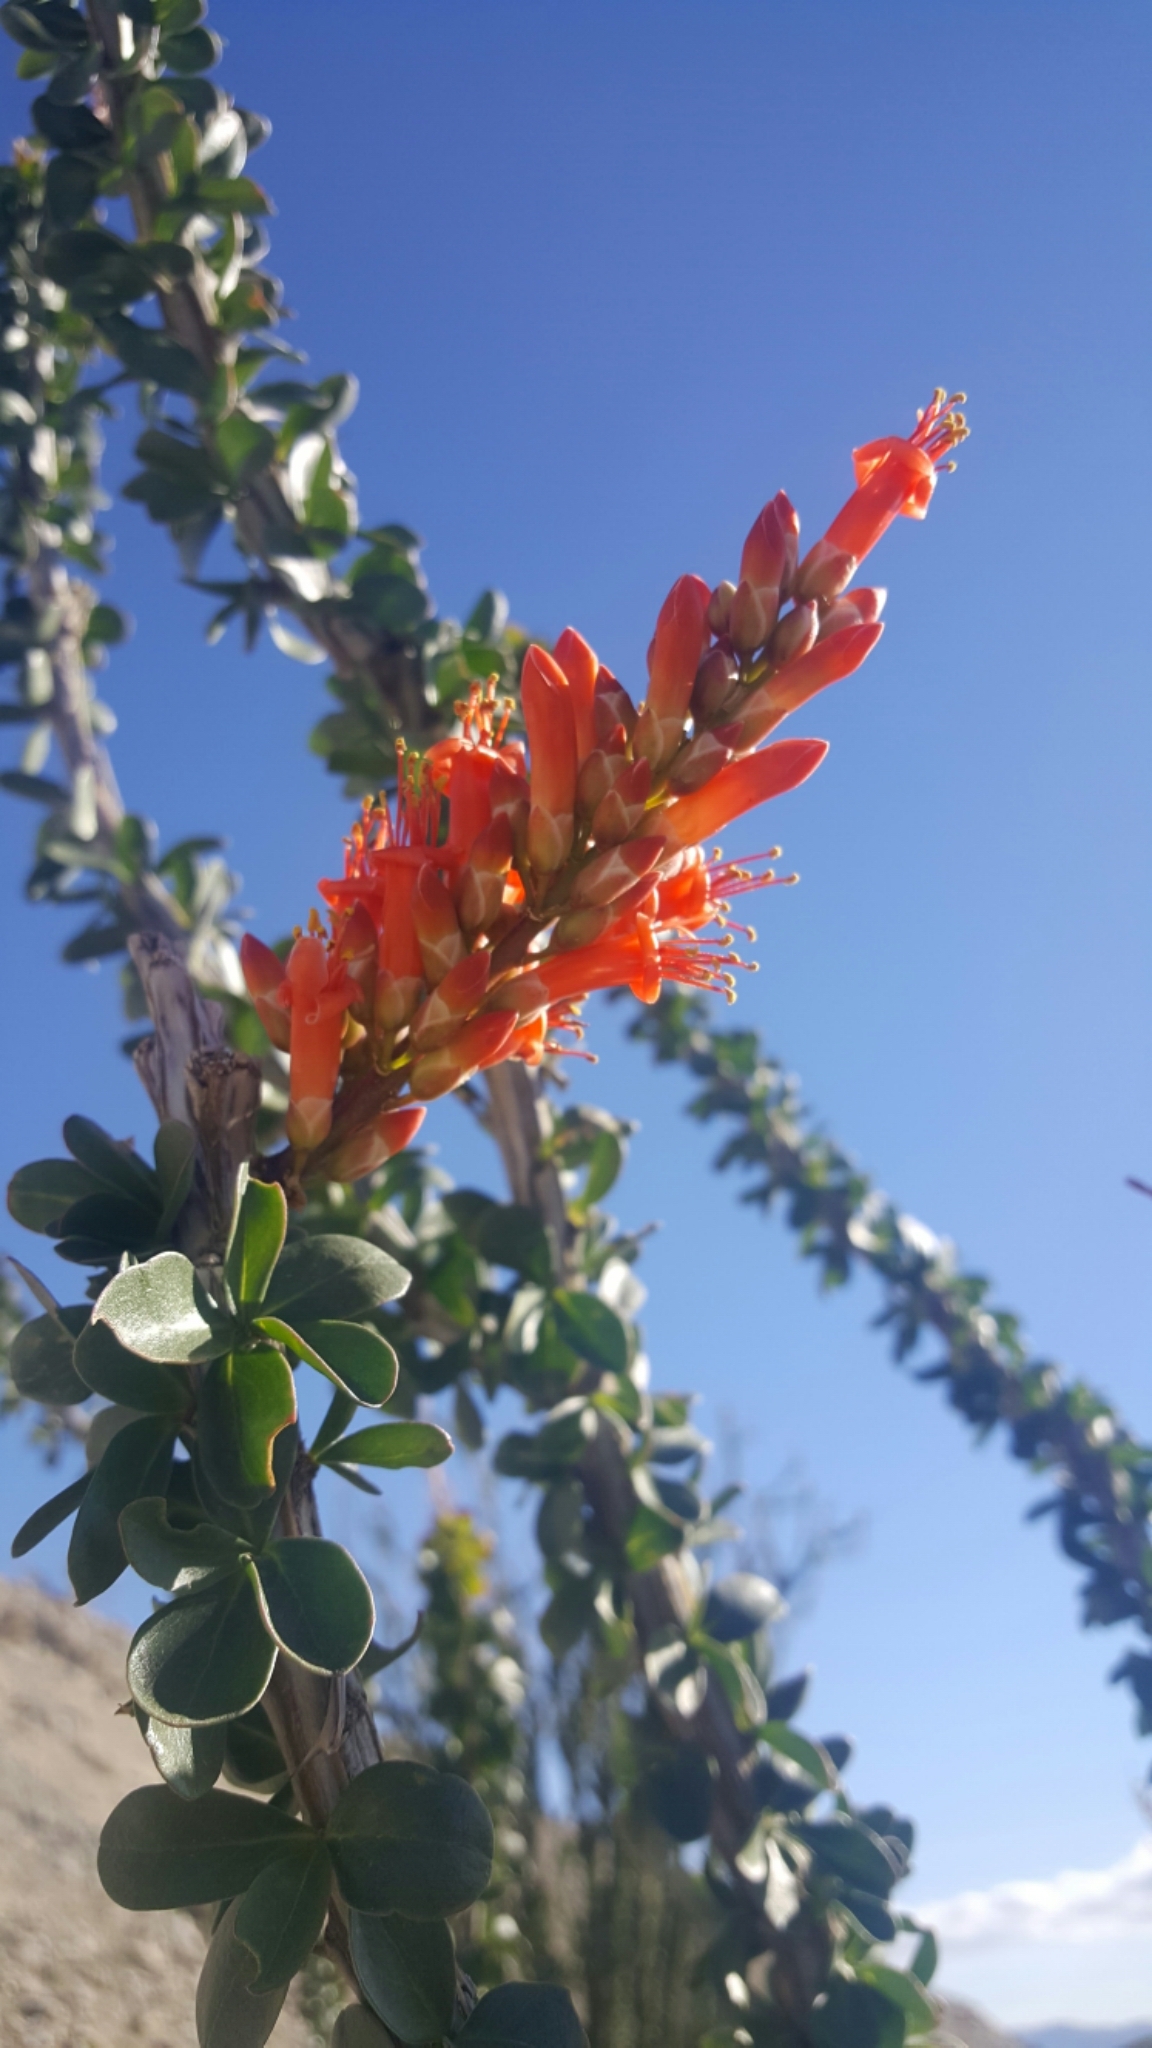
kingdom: Plantae
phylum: Tracheophyta
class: Magnoliopsida
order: Ericales
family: Fouquieriaceae
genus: Fouquieria
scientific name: Fouquieria splendens
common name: Vine-cactus
